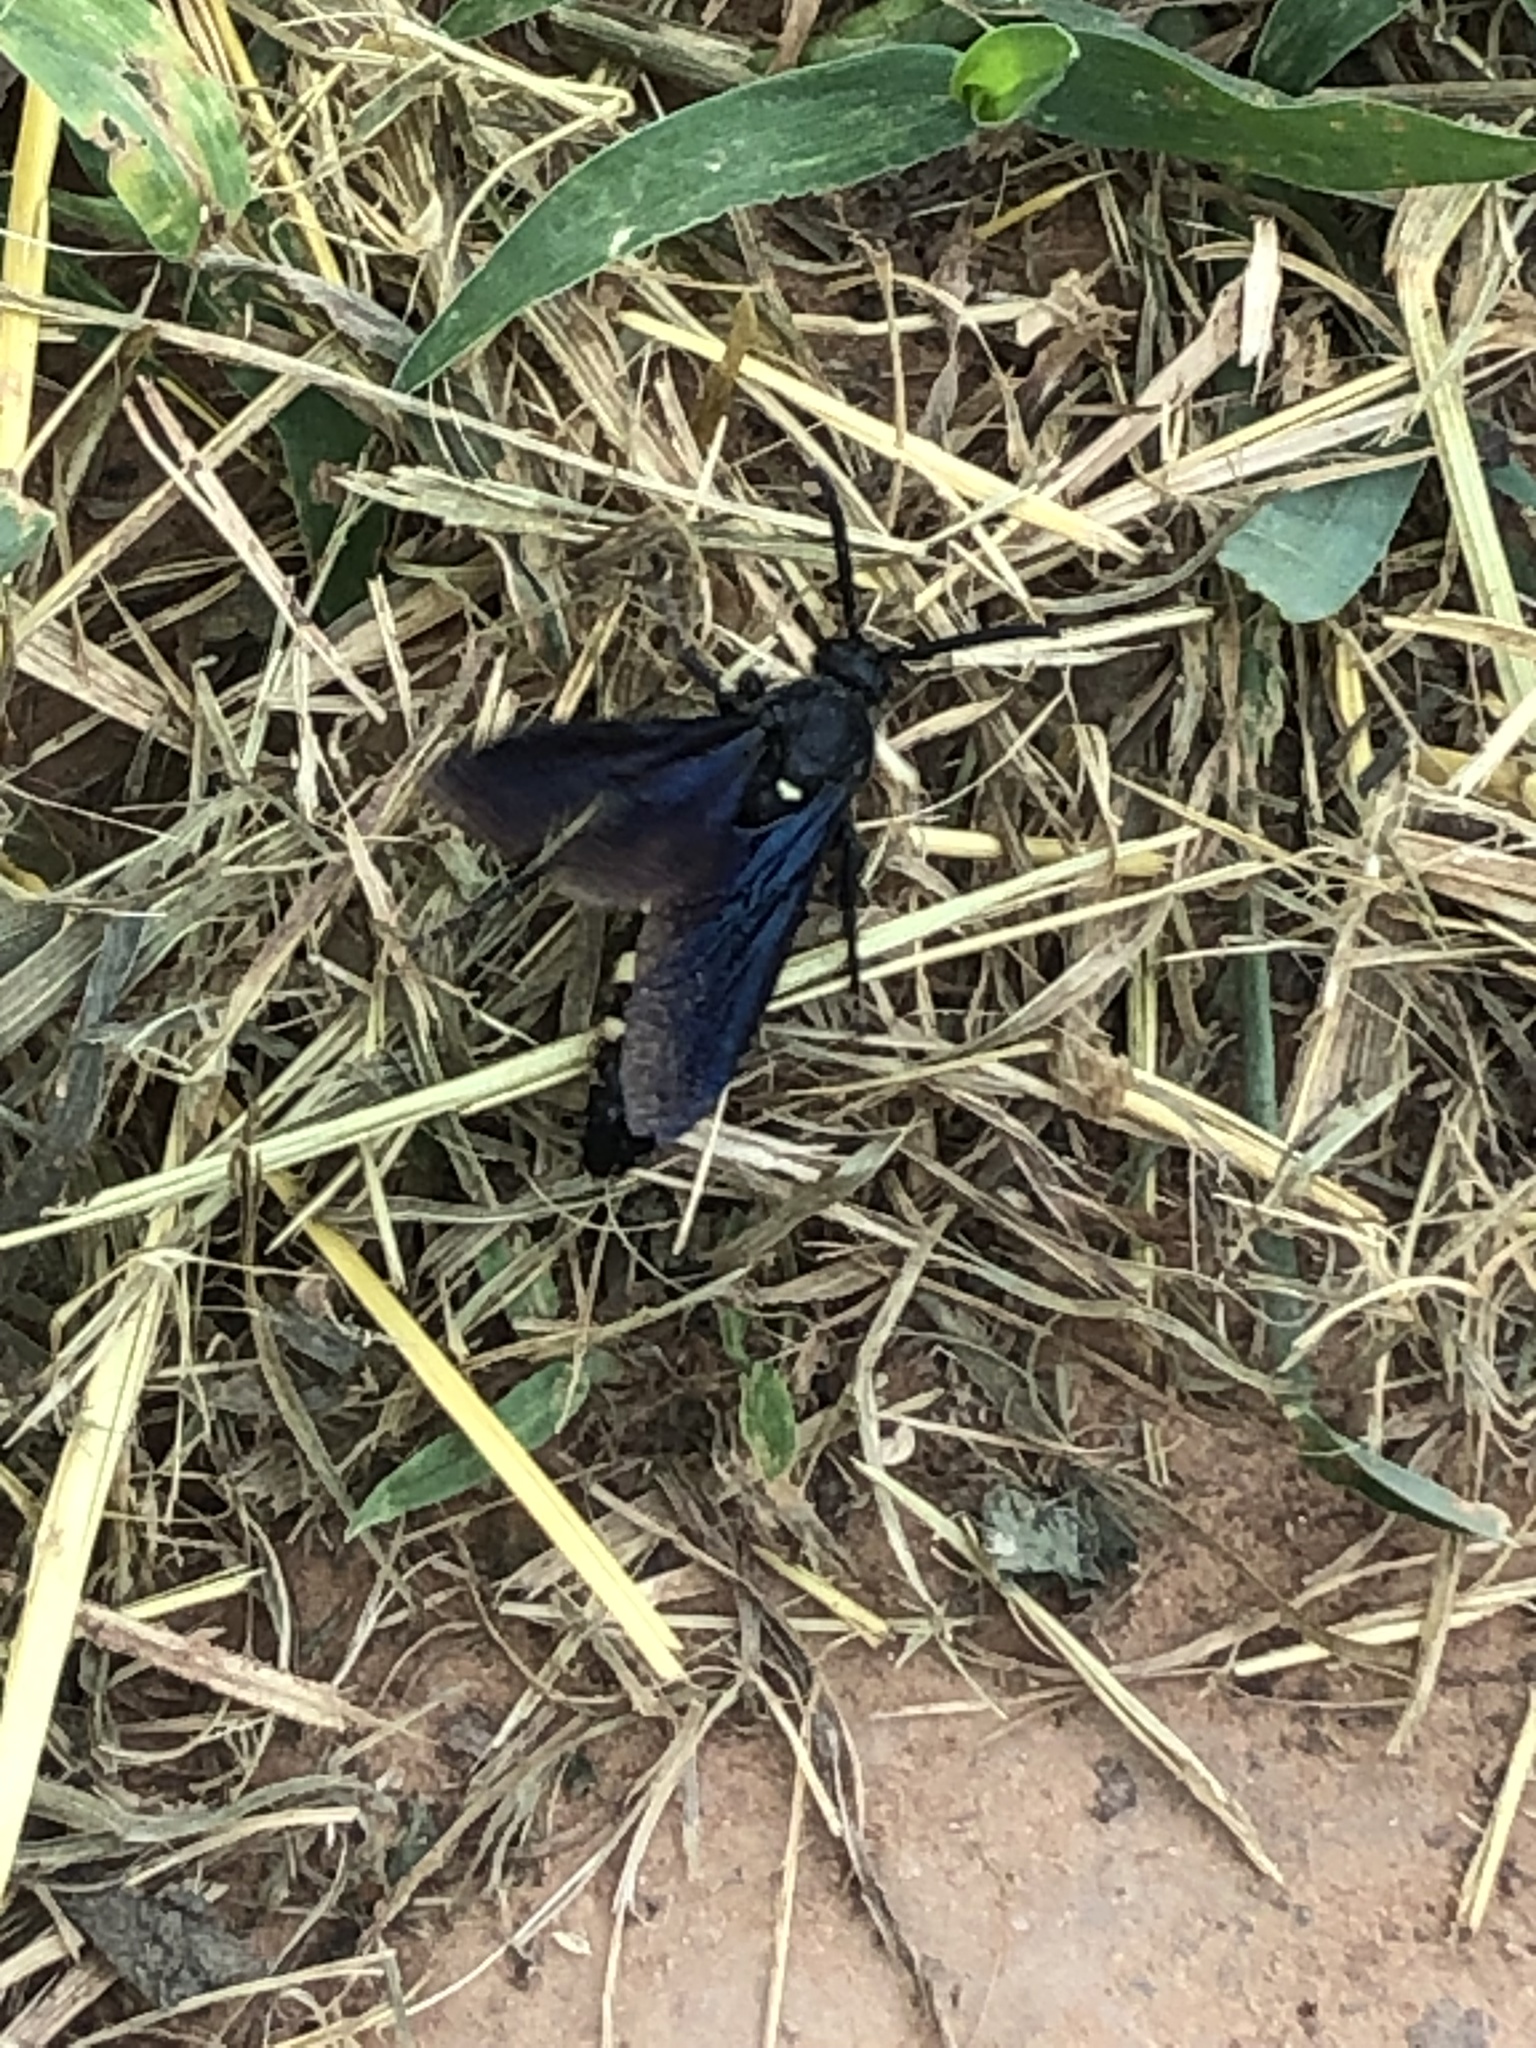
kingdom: Animalia
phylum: Arthropoda
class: Insecta
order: Hymenoptera
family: Scoliidae
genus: Scolia
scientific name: Scolia guttata
